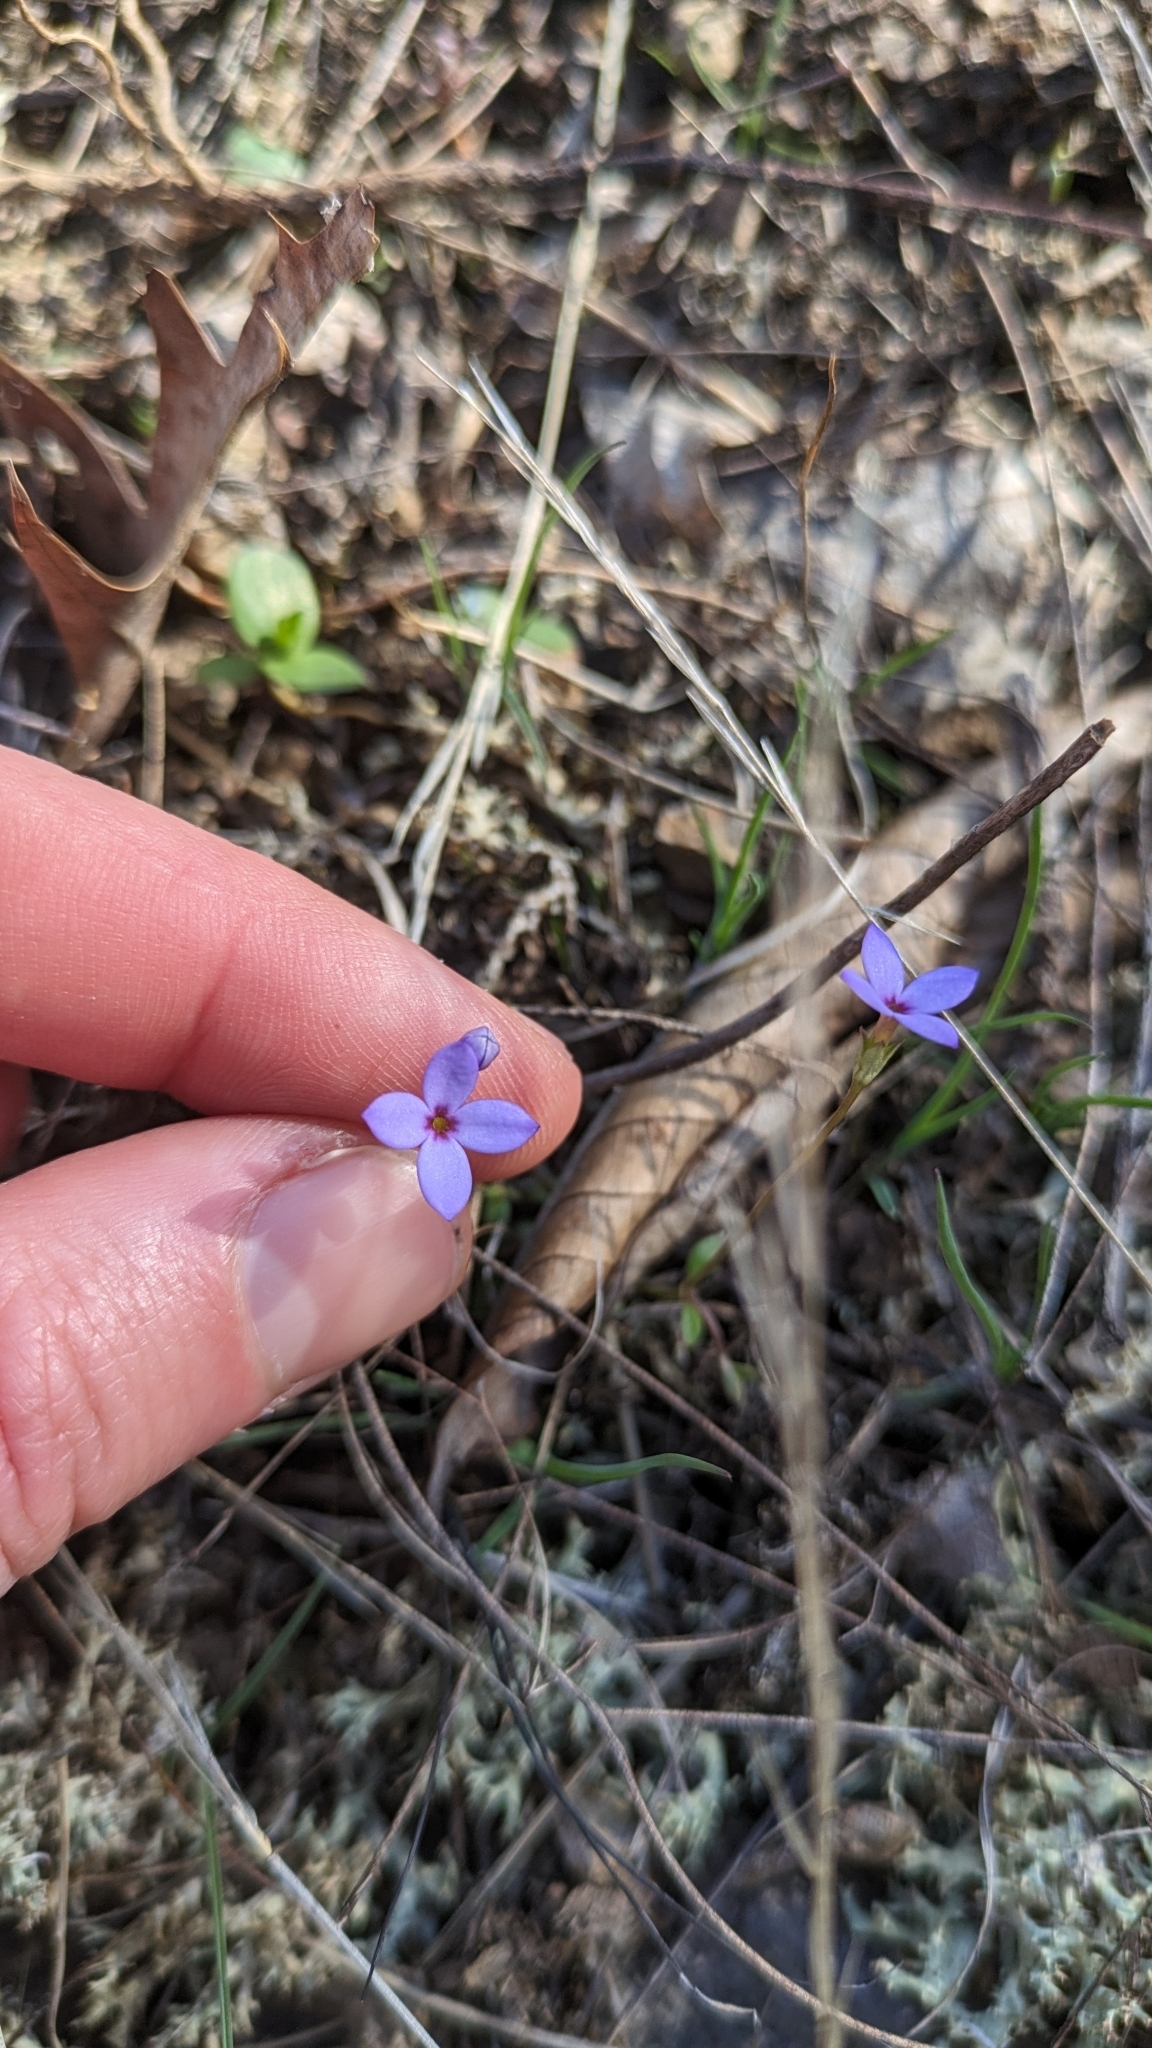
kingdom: Plantae
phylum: Tracheophyta
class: Magnoliopsida
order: Gentianales
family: Rubiaceae
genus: Houstonia
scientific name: Houstonia pusilla
